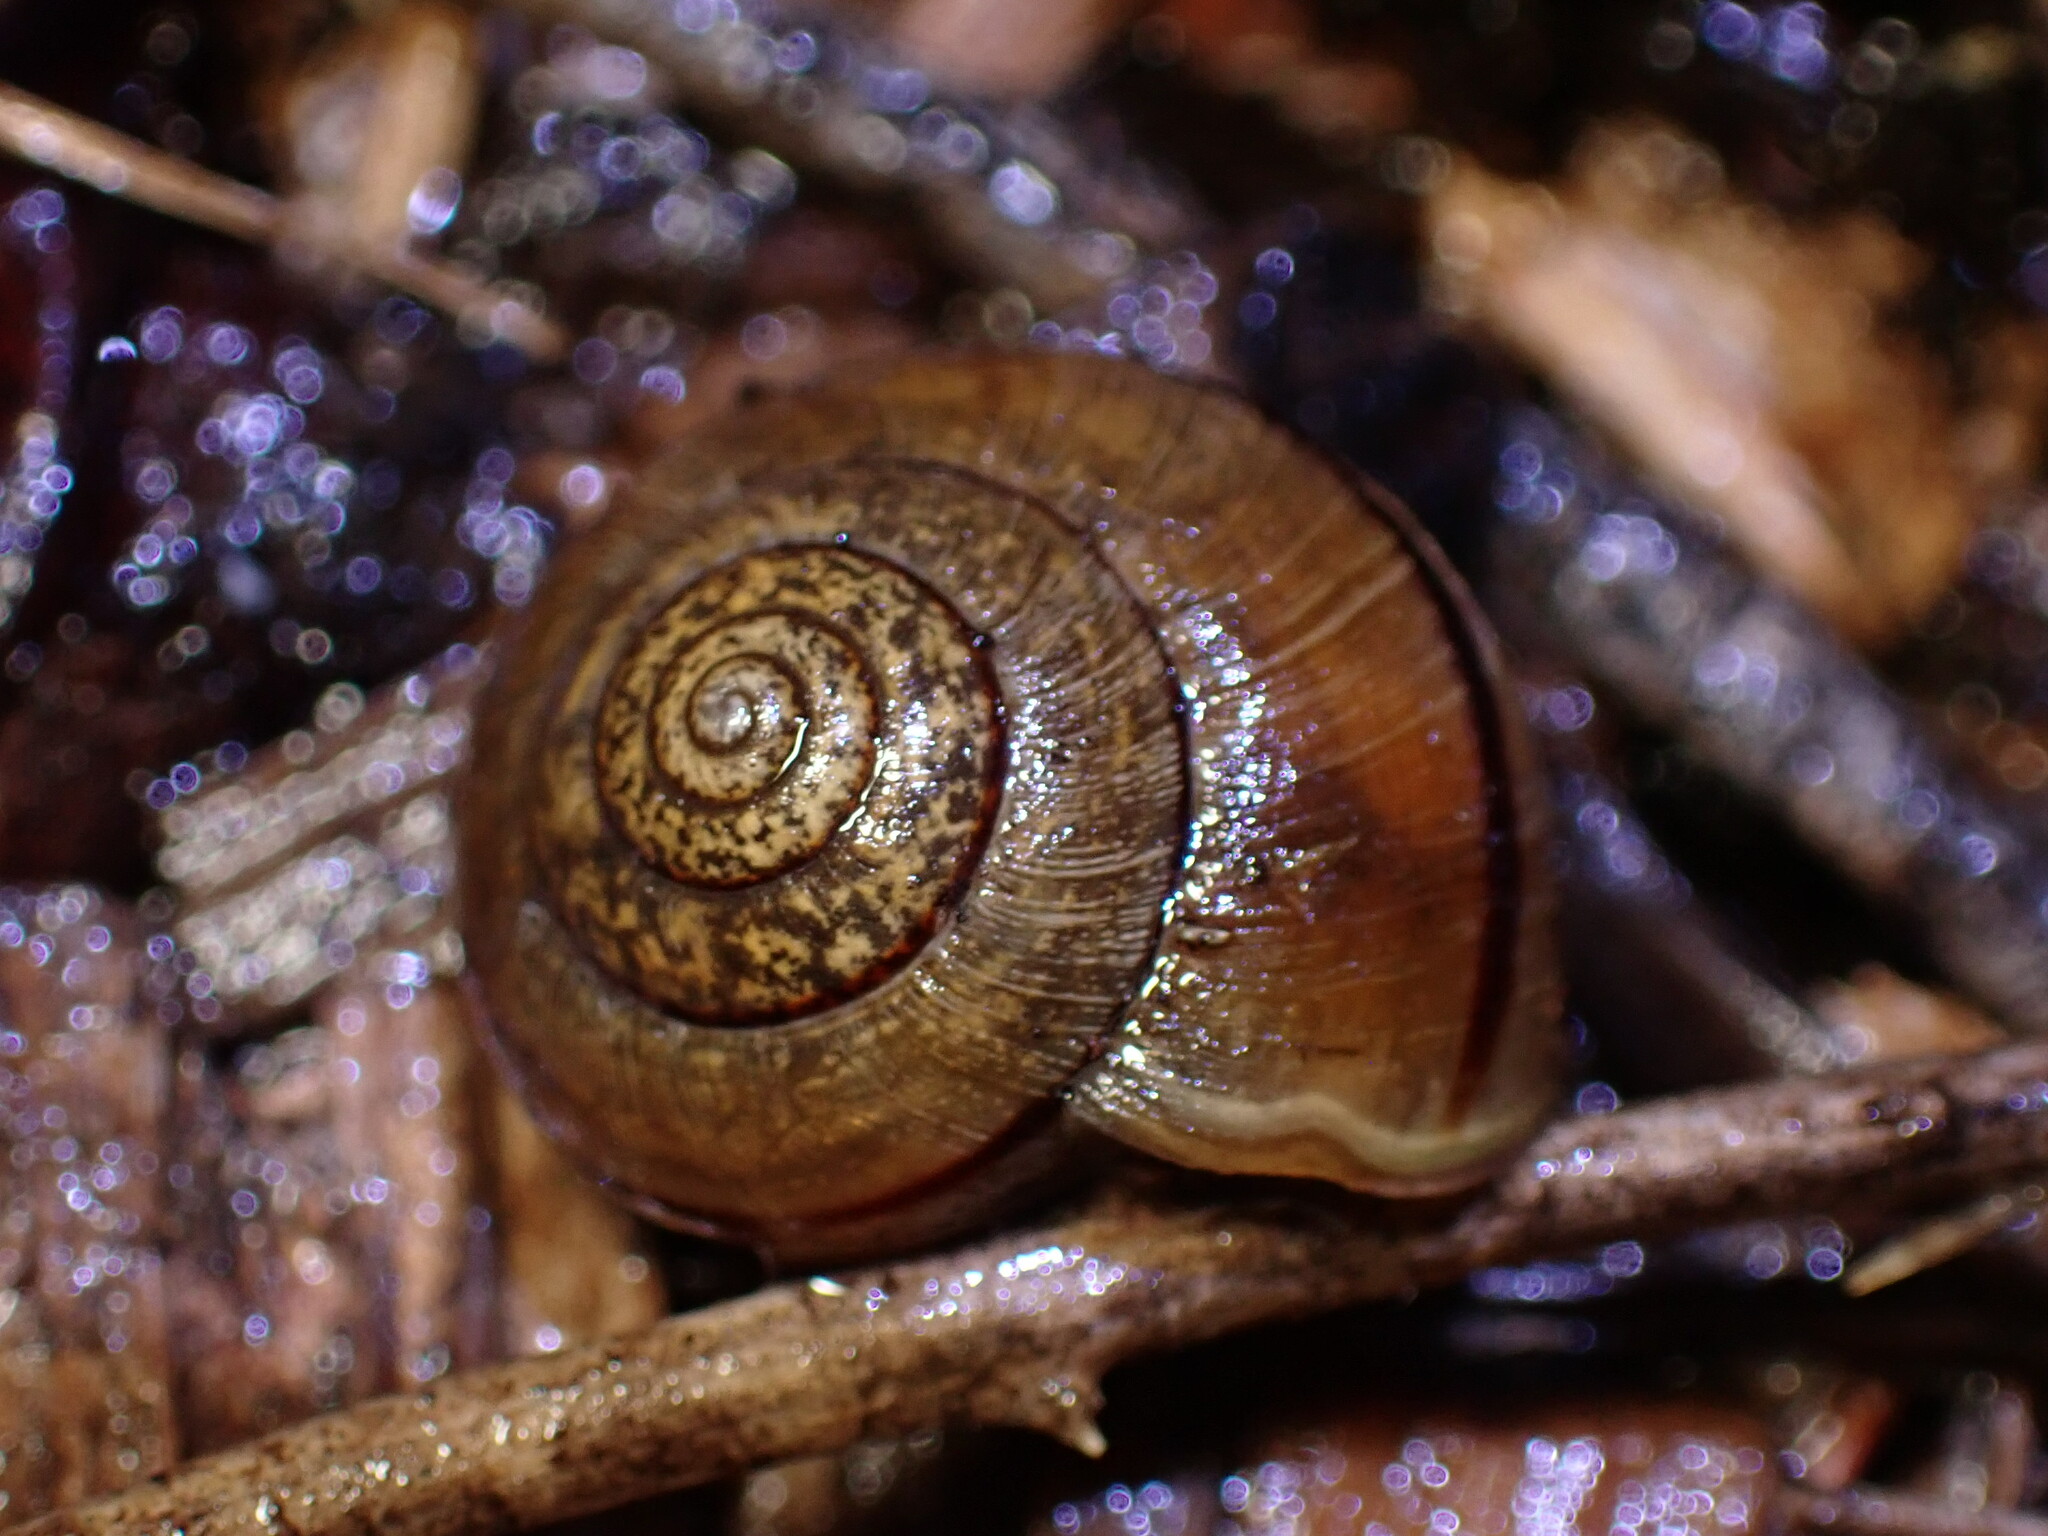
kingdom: Animalia
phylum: Mollusca
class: Gastropoda
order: Stylommatophora
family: Xanthonychidae
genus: Helminthoglypta
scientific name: Helminthoglypta nickliniana
